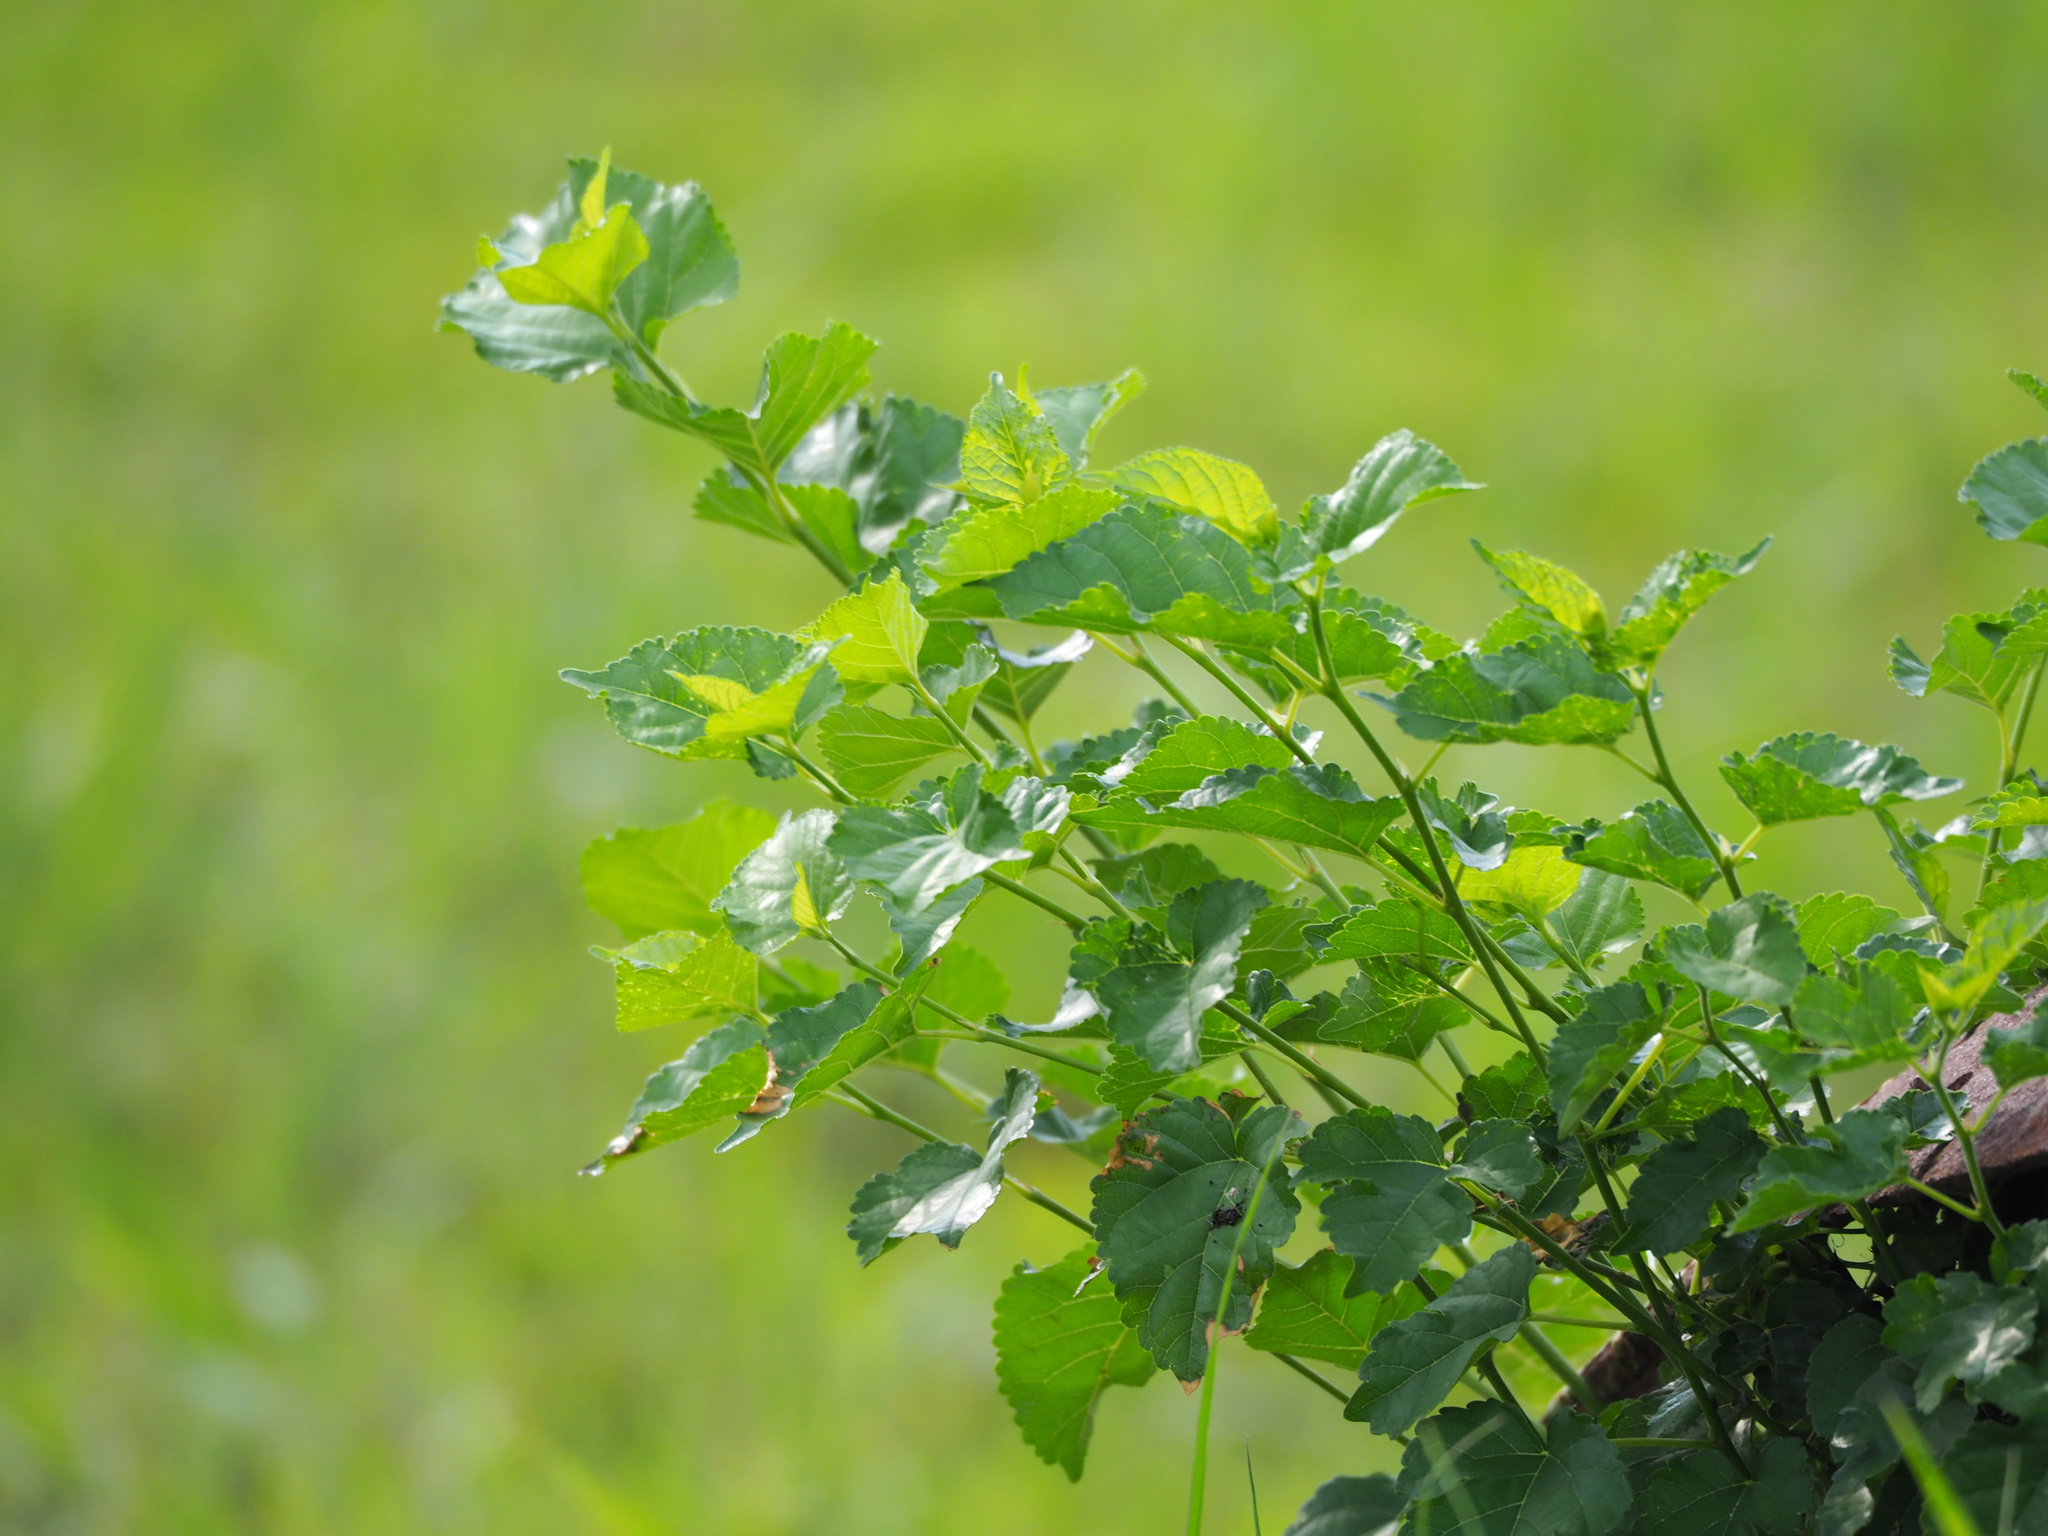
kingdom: Plantae
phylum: Tracheophyta
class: Magnoliopsida
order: Rosales
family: Moraceae
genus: Morus
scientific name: Morus indica
